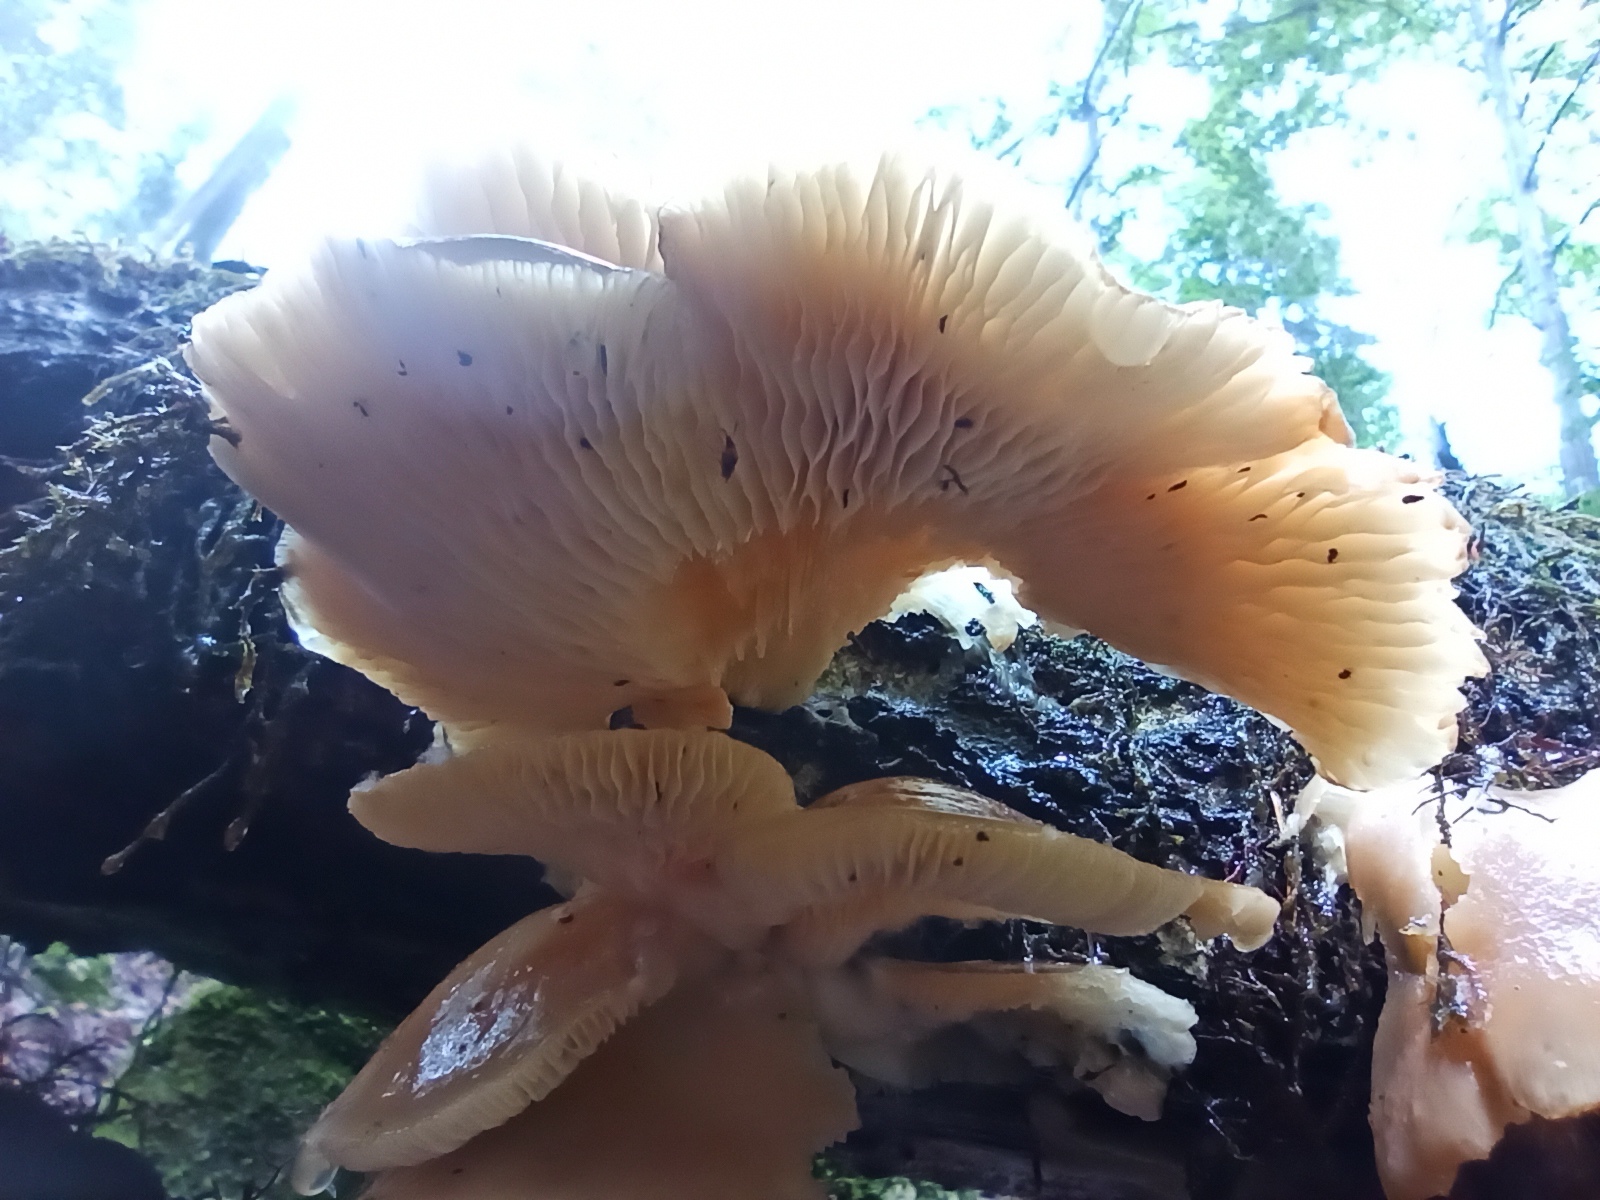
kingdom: Fungi
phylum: Basidiomycota
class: Agaricomycetes
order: Agaricales
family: Pleurotaceae
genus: Pleurotus
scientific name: Pleurotus pulmonarius
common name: Pale oyster
